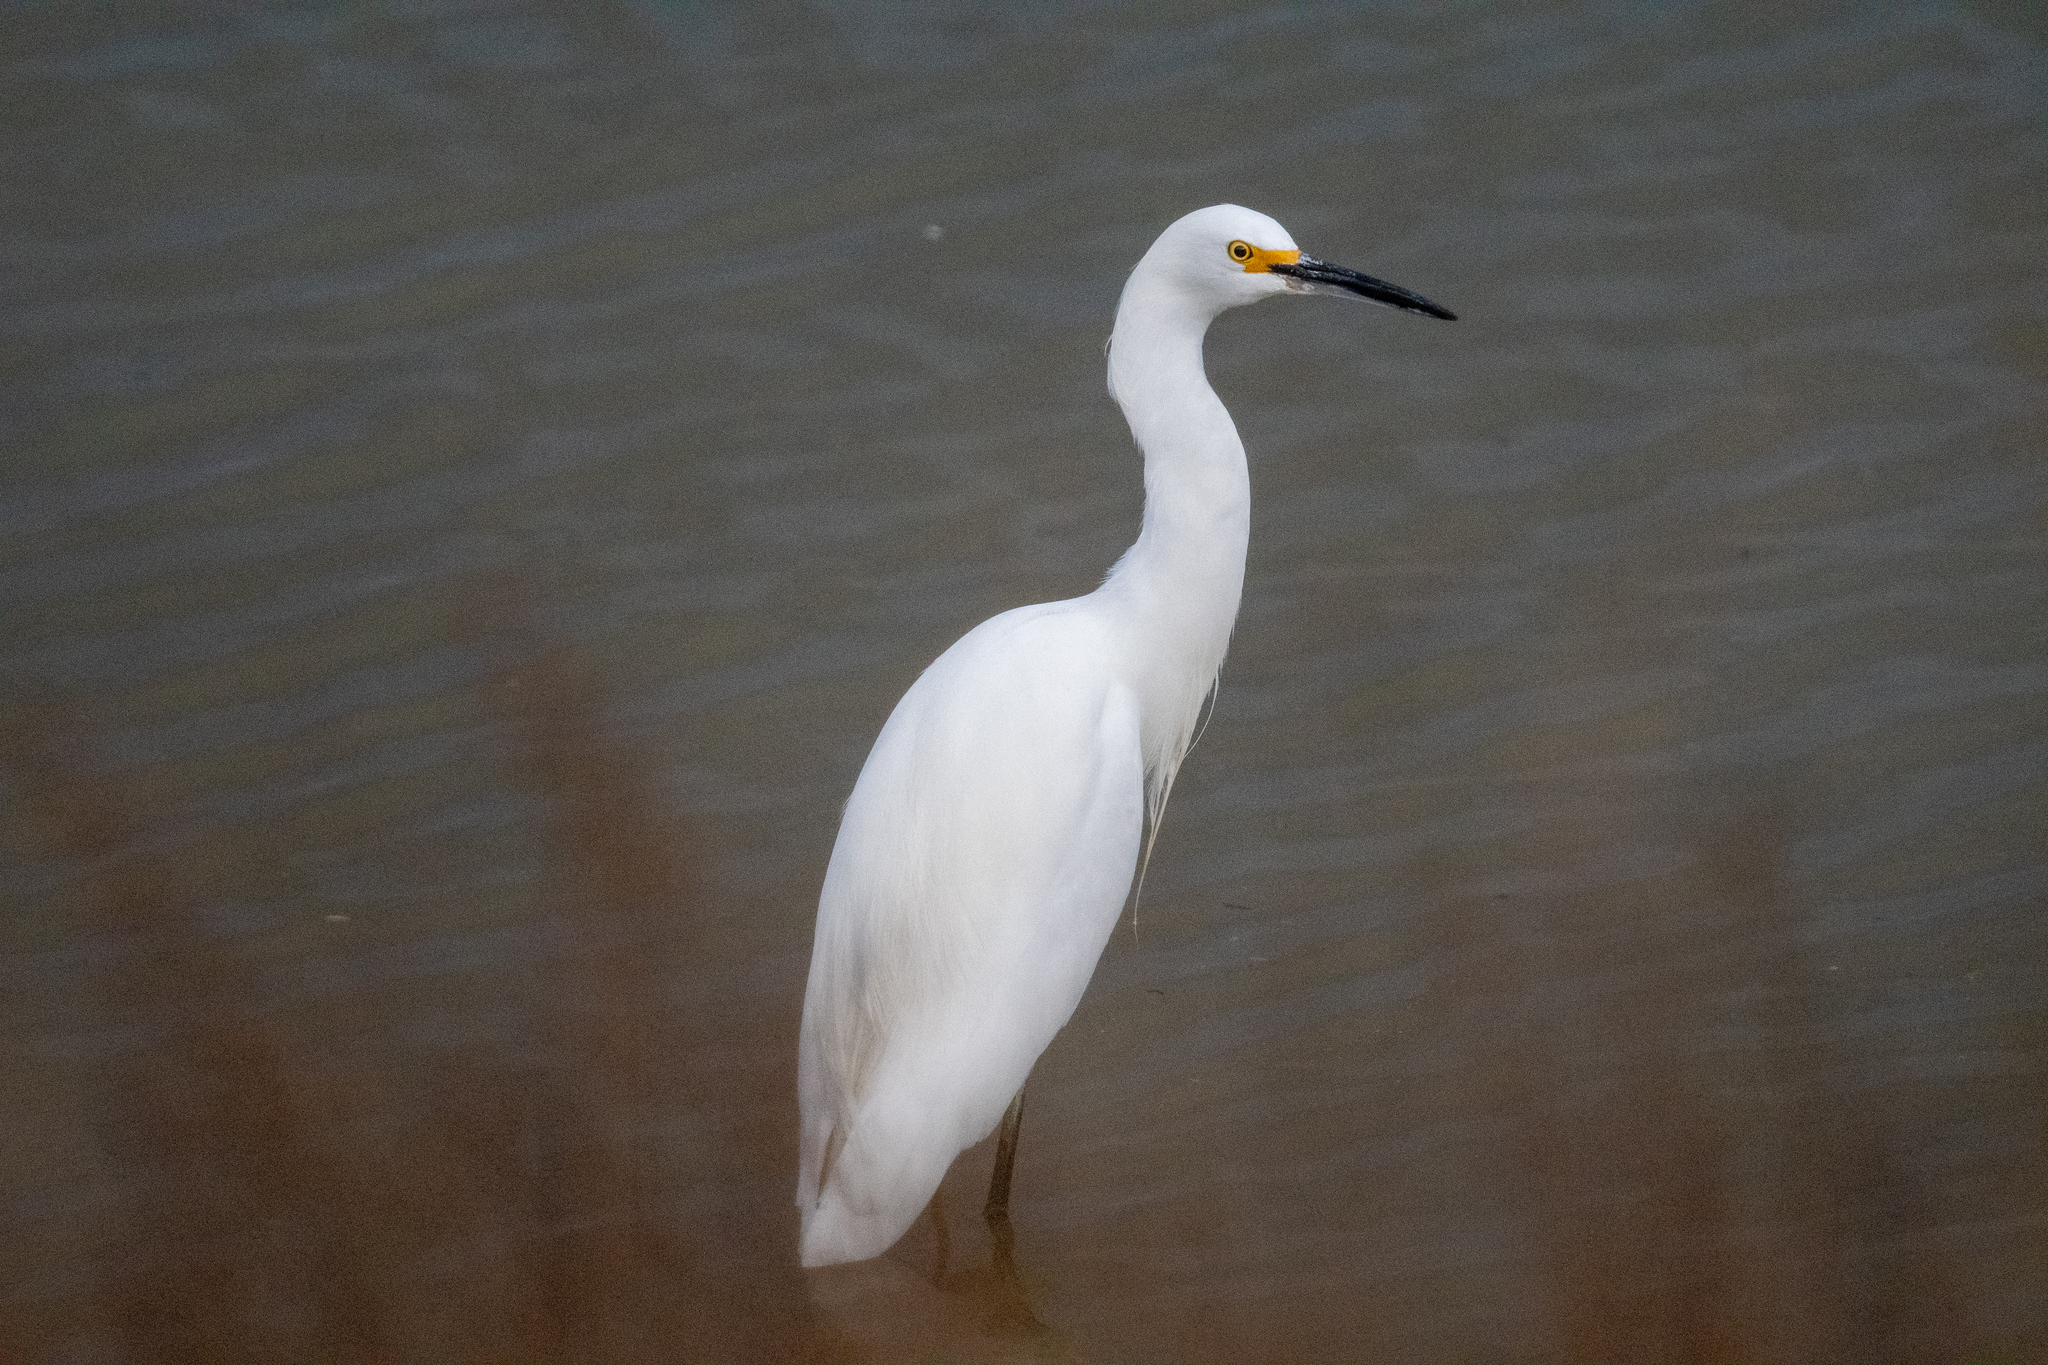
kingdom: Animalia
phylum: Chordata
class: Aves
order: Pelecaniformes
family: Ardeidae
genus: Egretta
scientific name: Egretta thula
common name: Snowy egret
